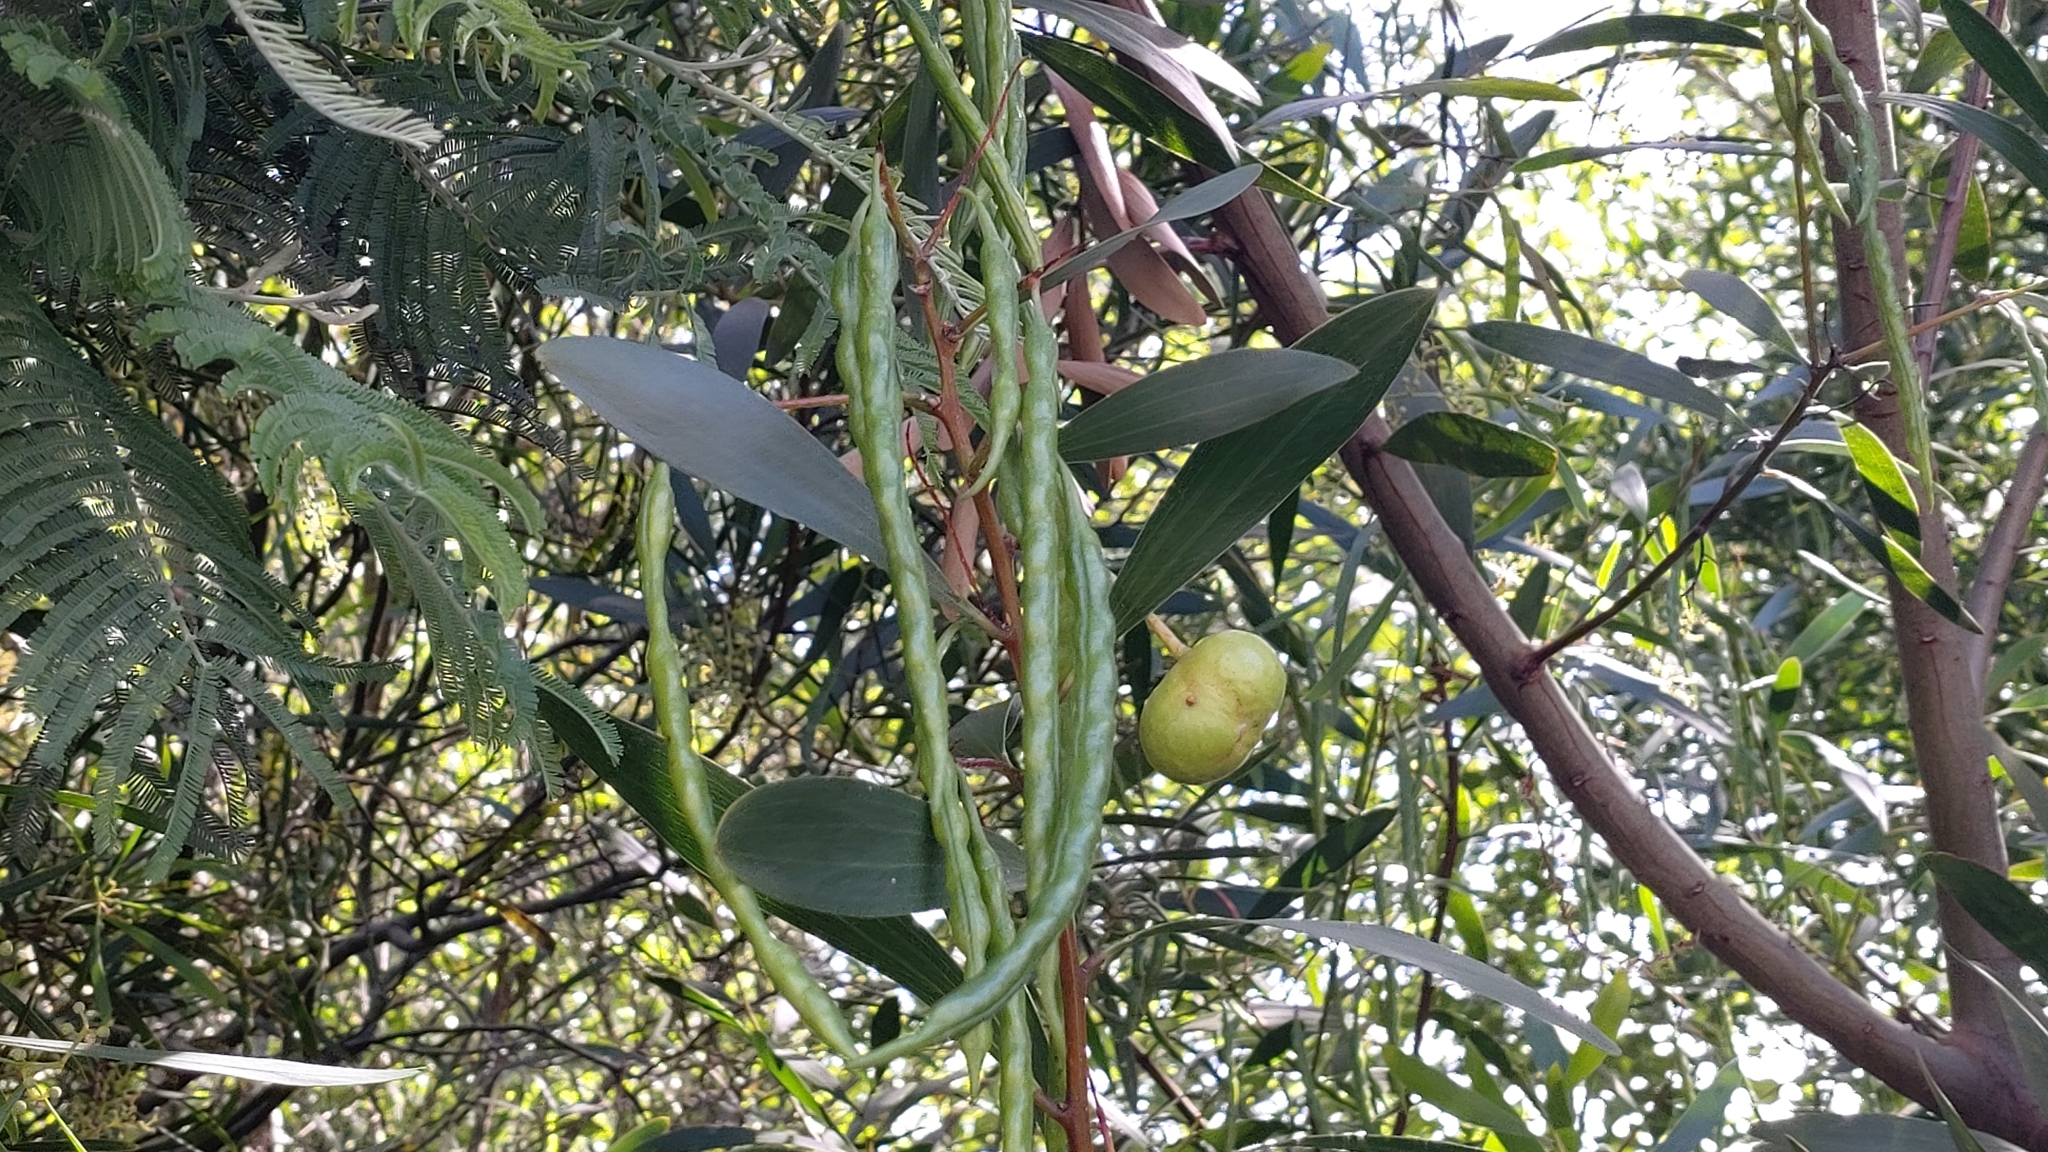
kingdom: Plantae
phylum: Tracheophyta
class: Magnoliopsida
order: Fabales
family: Fabaceae
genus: Acacia
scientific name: Acacia longifolia
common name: Sydney golden wattle
